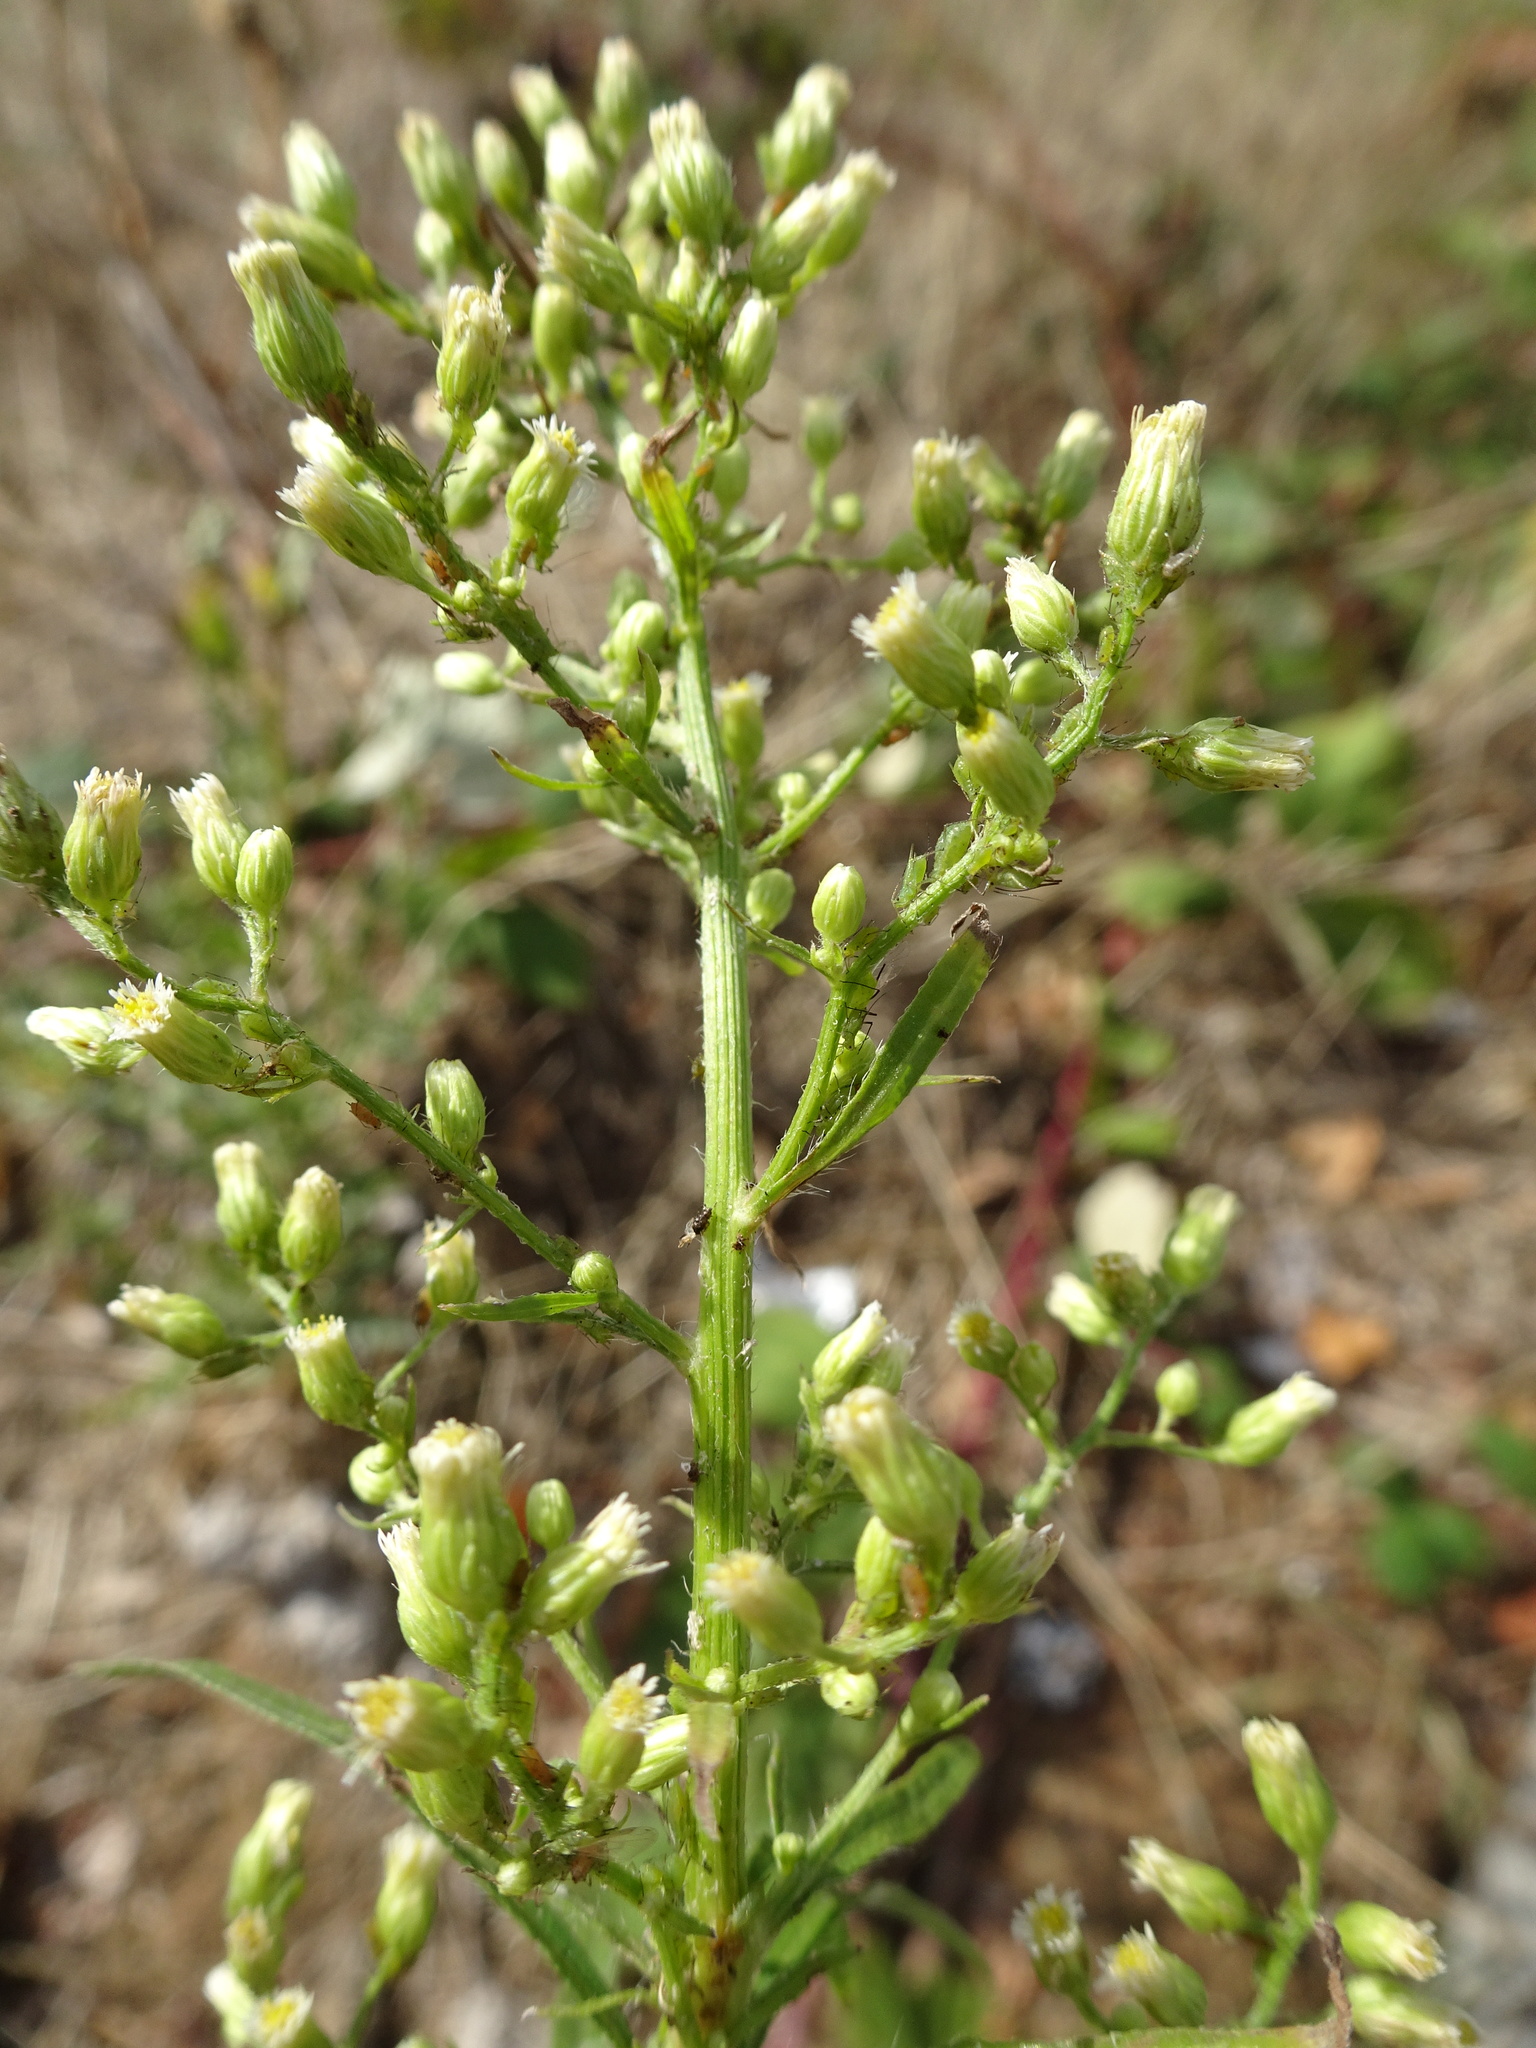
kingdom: Plantae
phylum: Tracheophyta
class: Magnoliopsida
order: Asterales
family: Asteraceae
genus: Erigeron
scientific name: Erigeron canadensis
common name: Canadian fleabane
